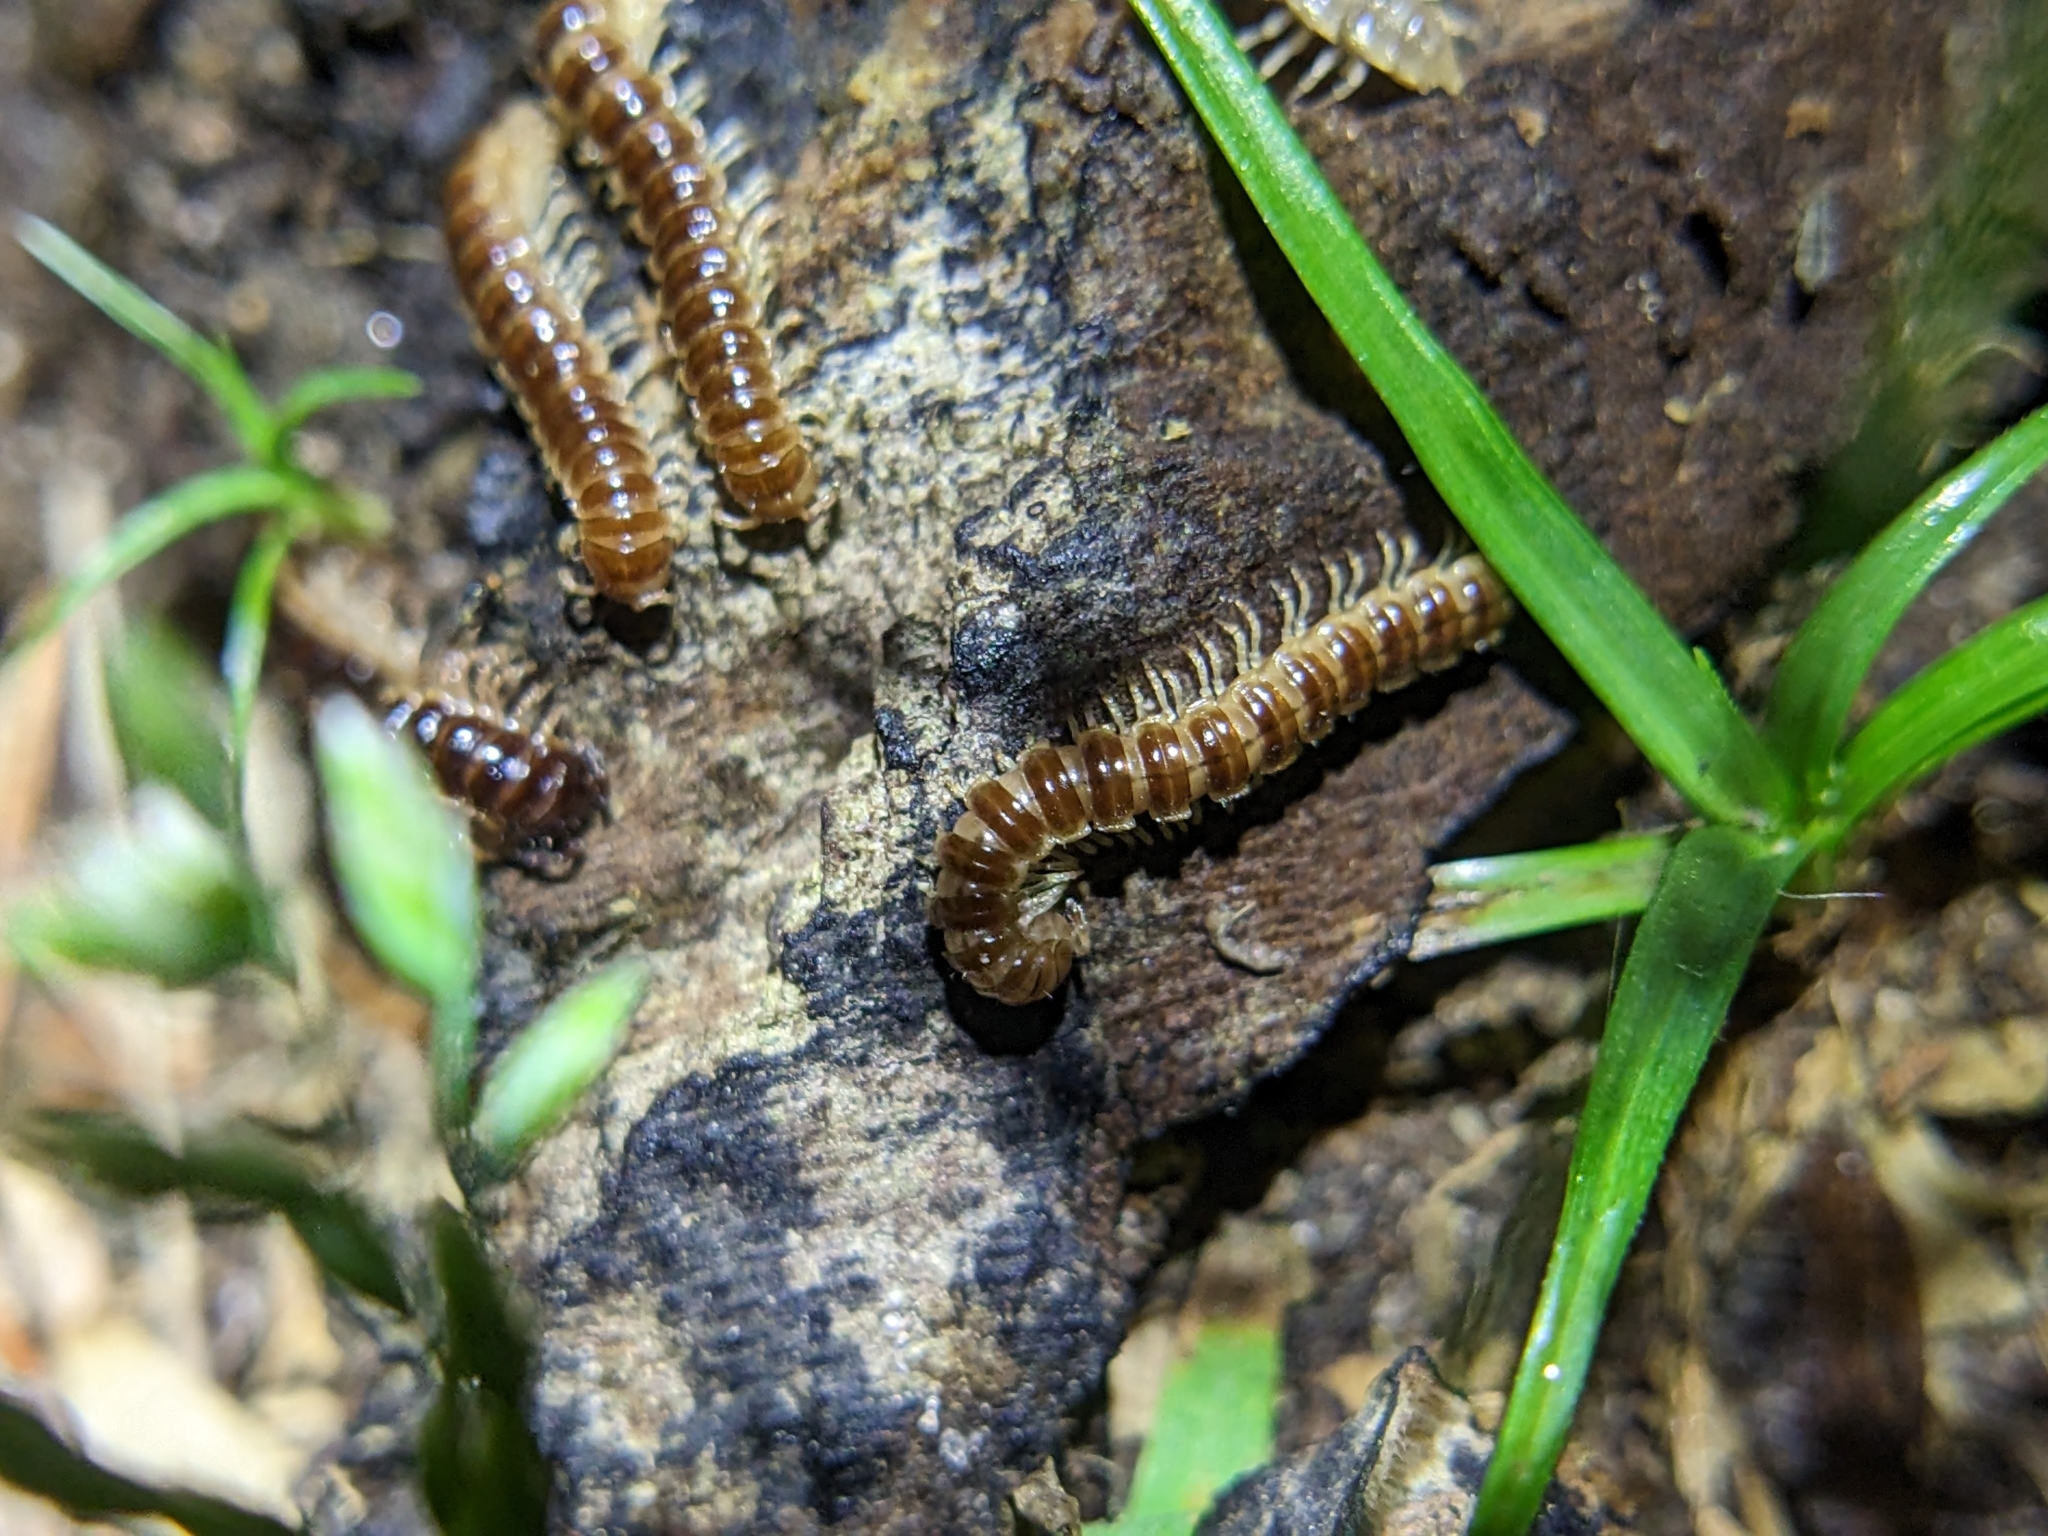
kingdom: Animalia
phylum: Arthropoda
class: Diplopoda
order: Polydesmida
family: Paradoxosomatidae
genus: Oxidus
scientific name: Oxidus gracilis
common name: Greenhouse millipede
